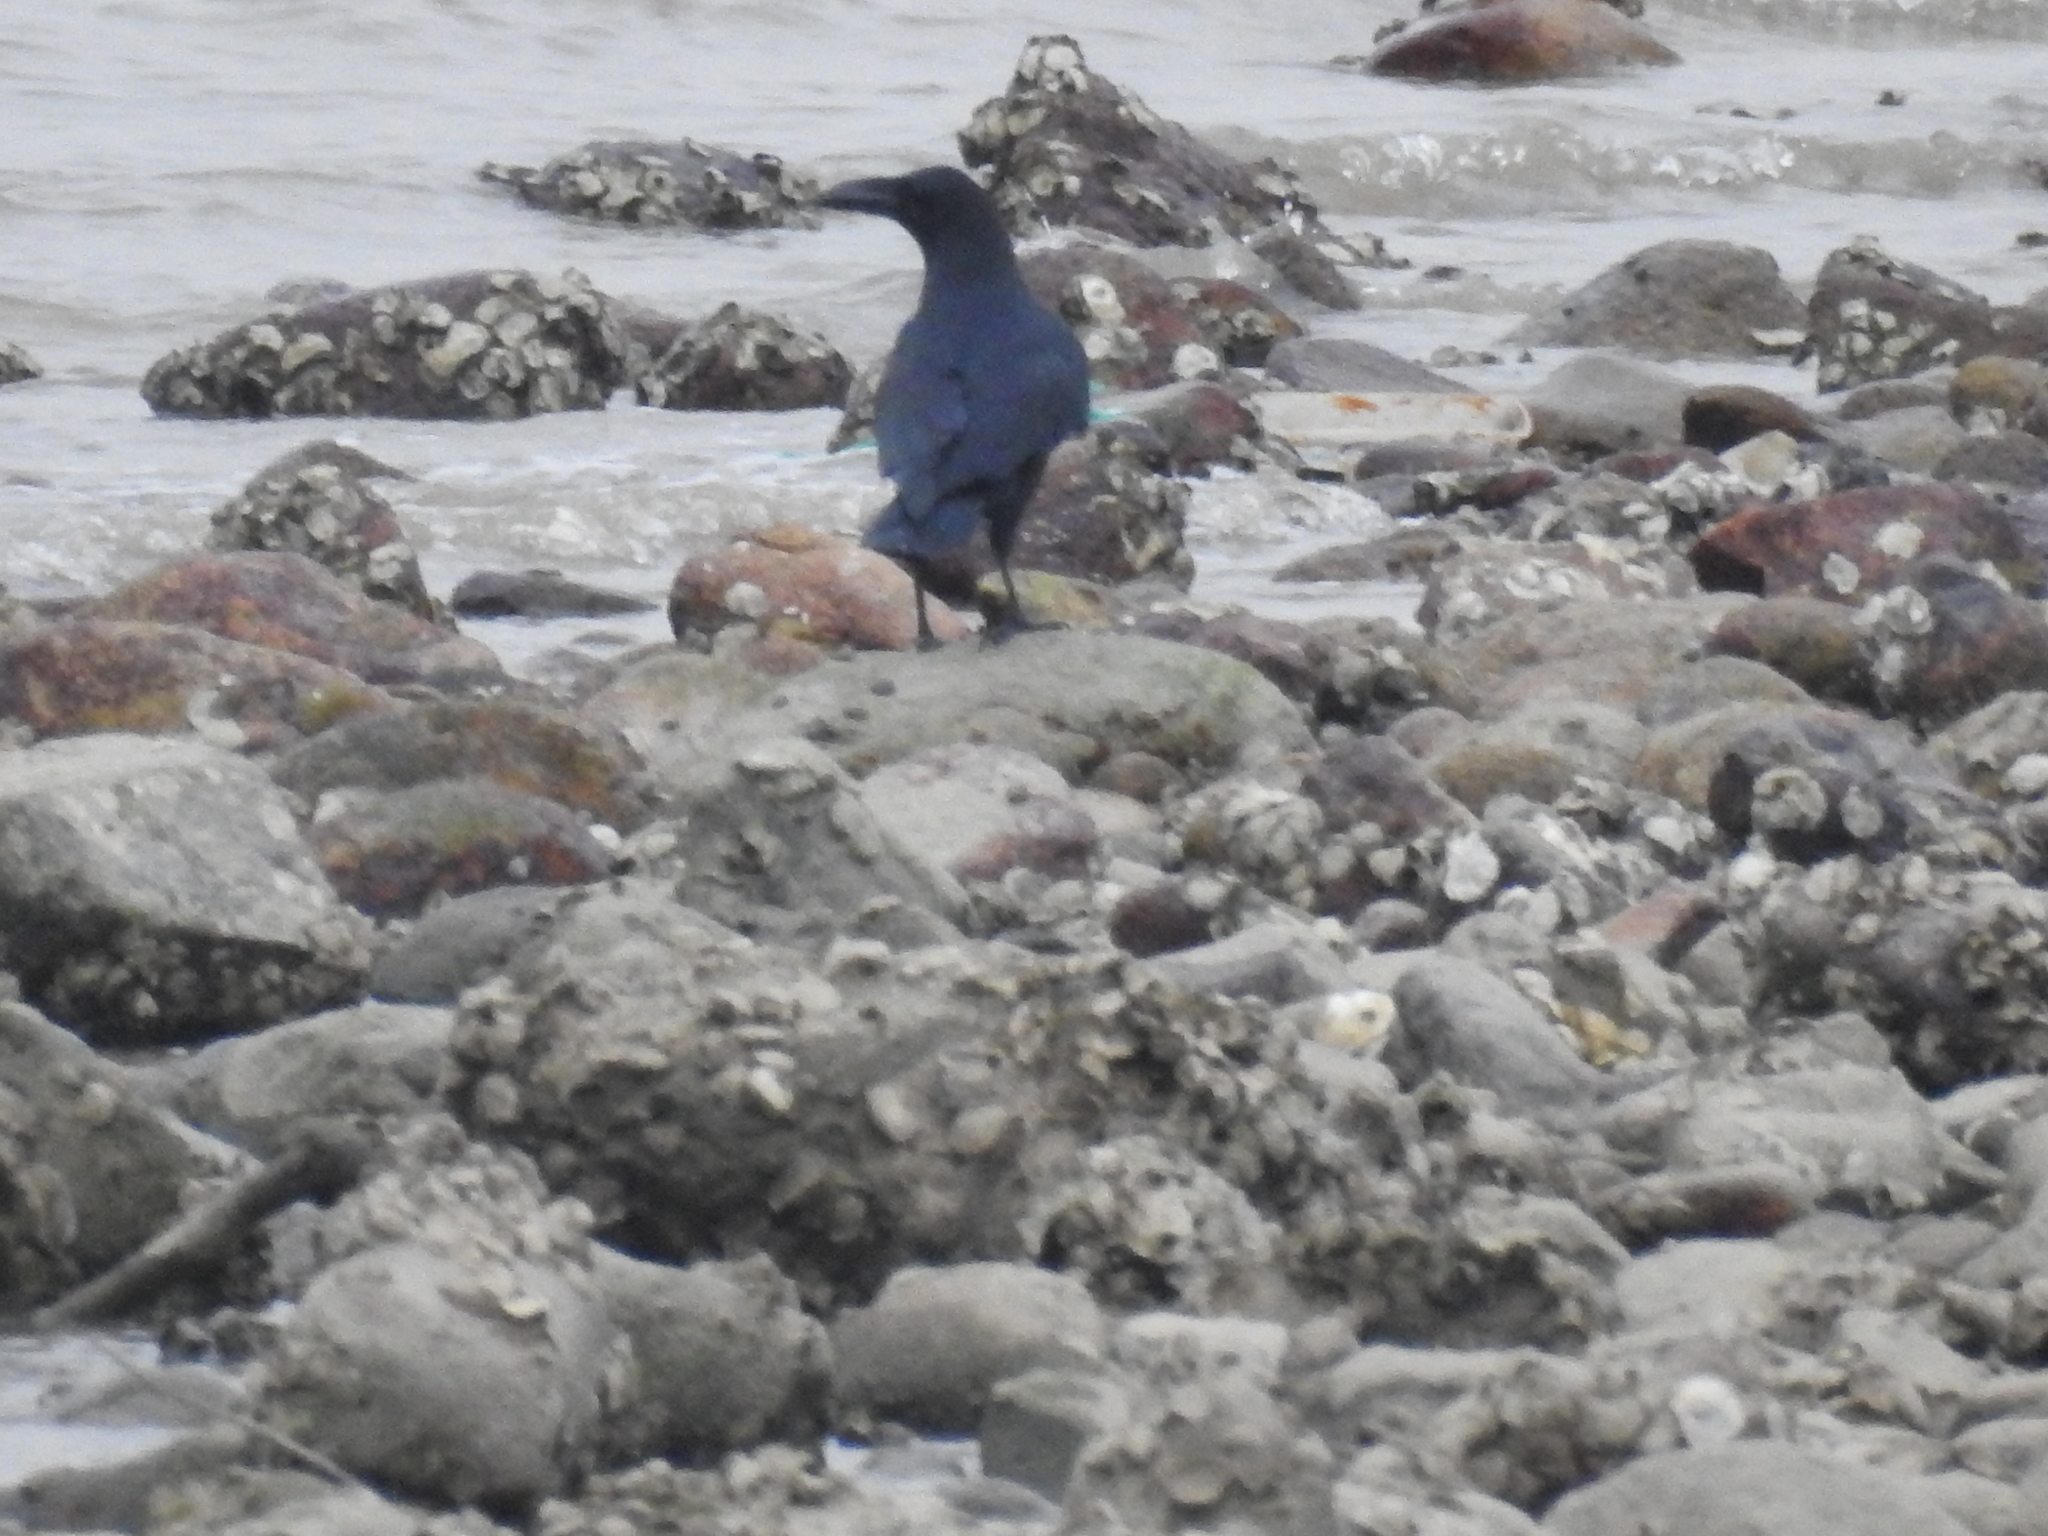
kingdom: Animalia
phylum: Chordata
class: Aves
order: Passeriformes
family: Corvidae
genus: Corvus
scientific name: Corvus macrorhynchos
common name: Large-billed crow
